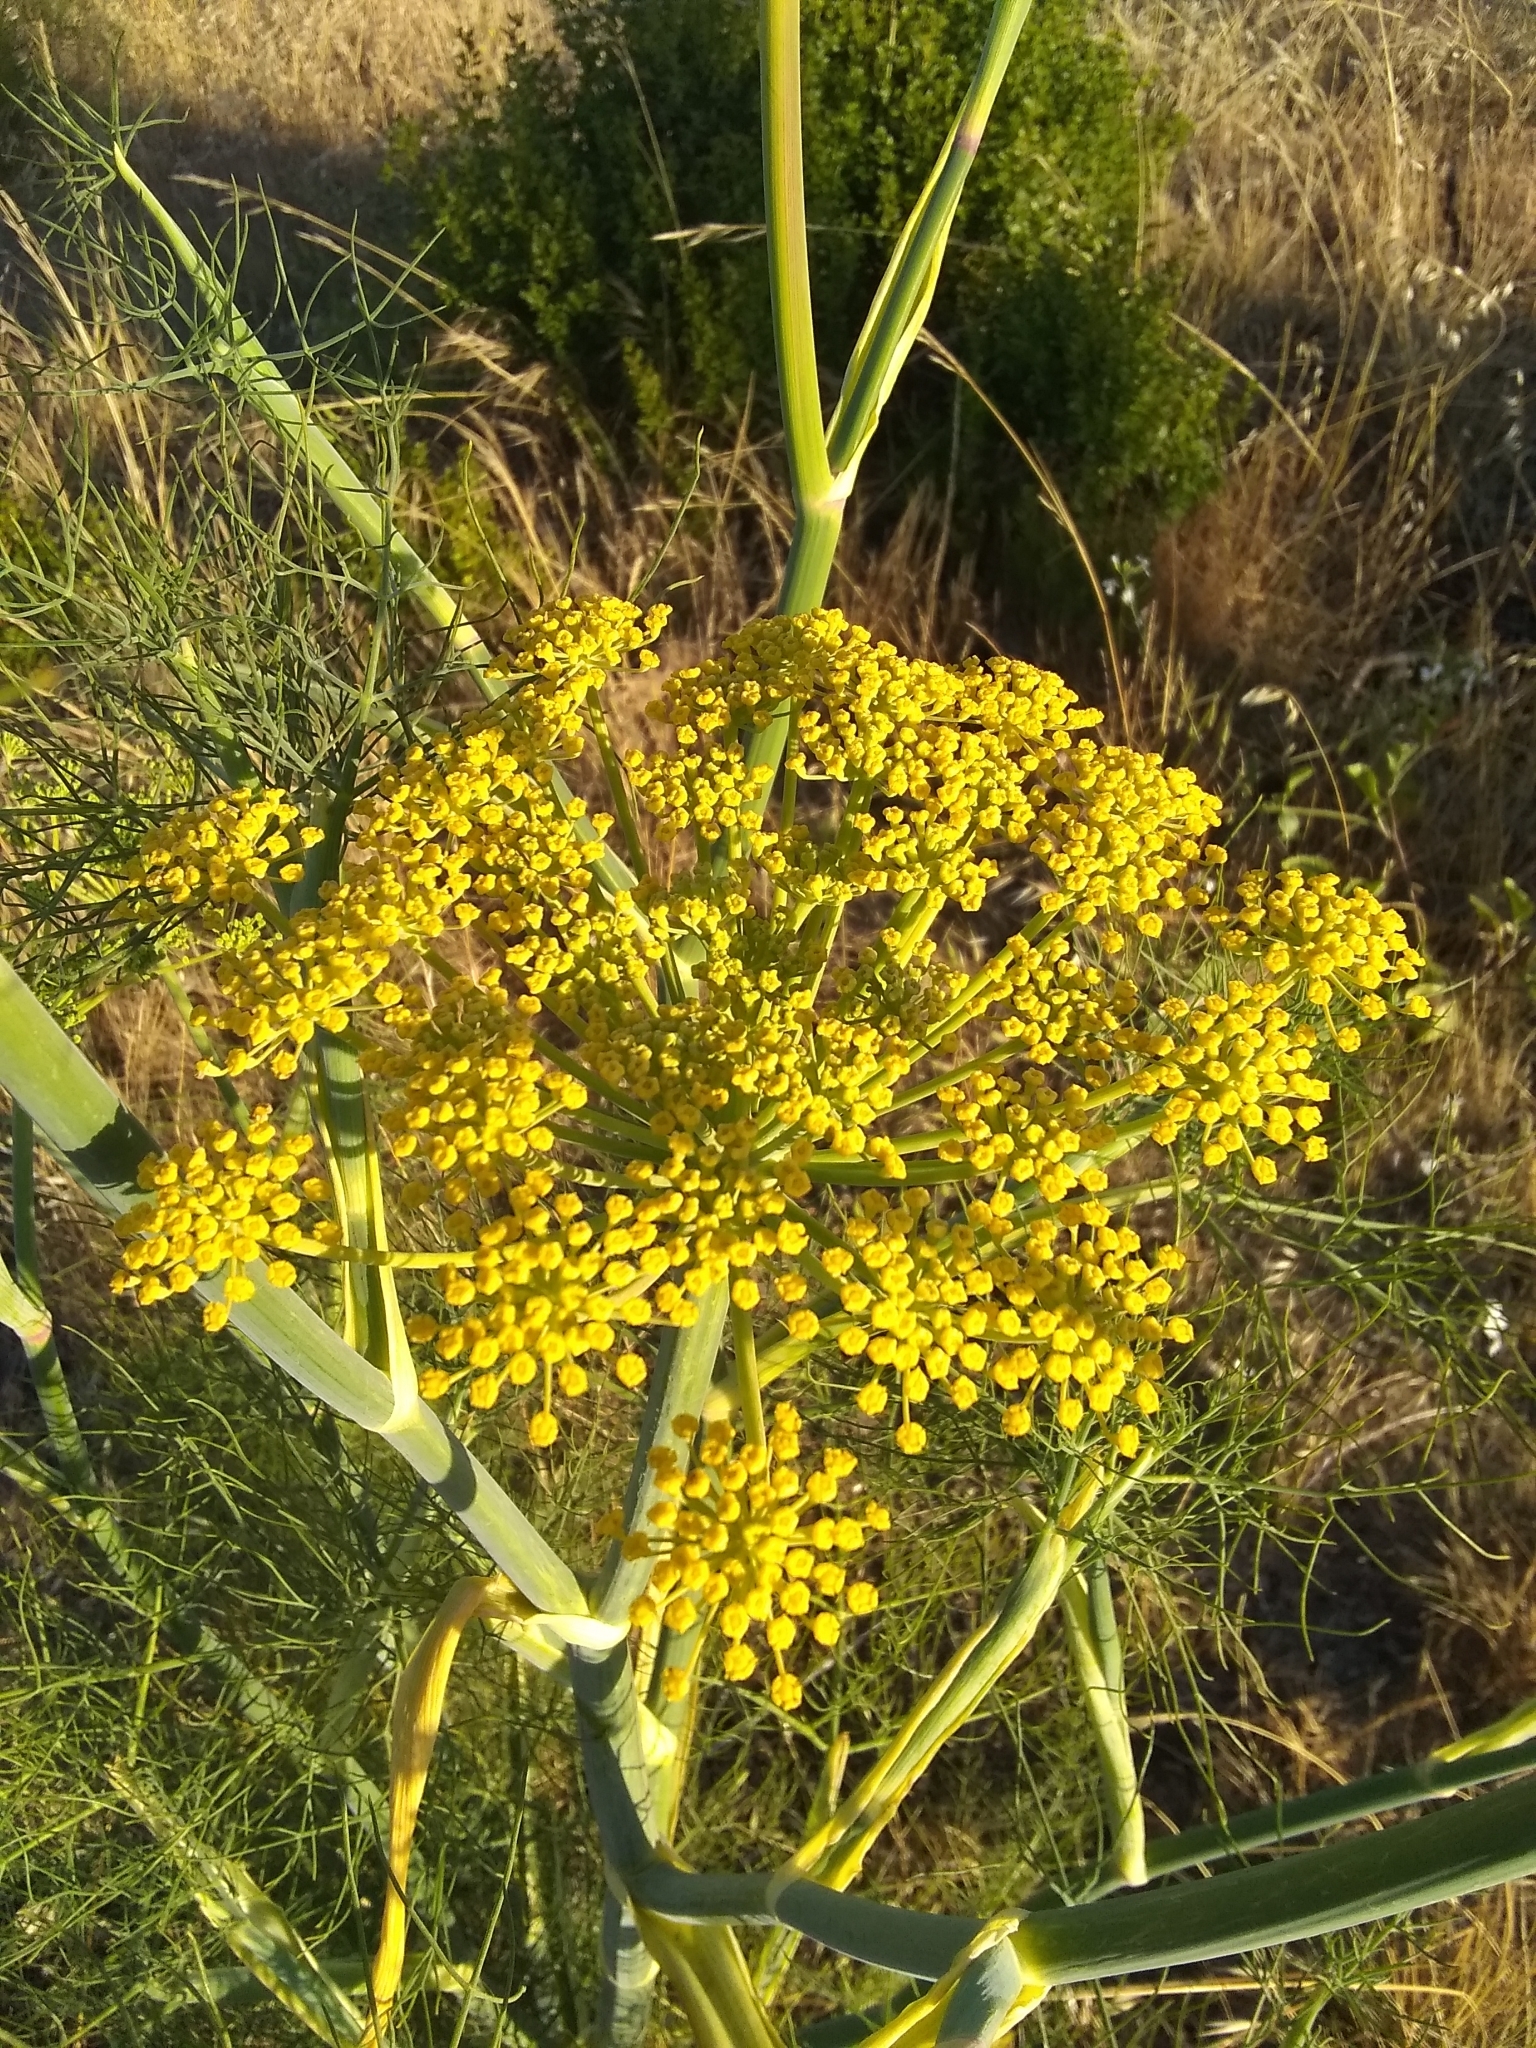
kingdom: Plantae
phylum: Tracheophyta
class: Magnoliopsida
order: Apiales
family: Apiaceae
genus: Foeniculum
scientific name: Foeniculum vulgare
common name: Fennel
